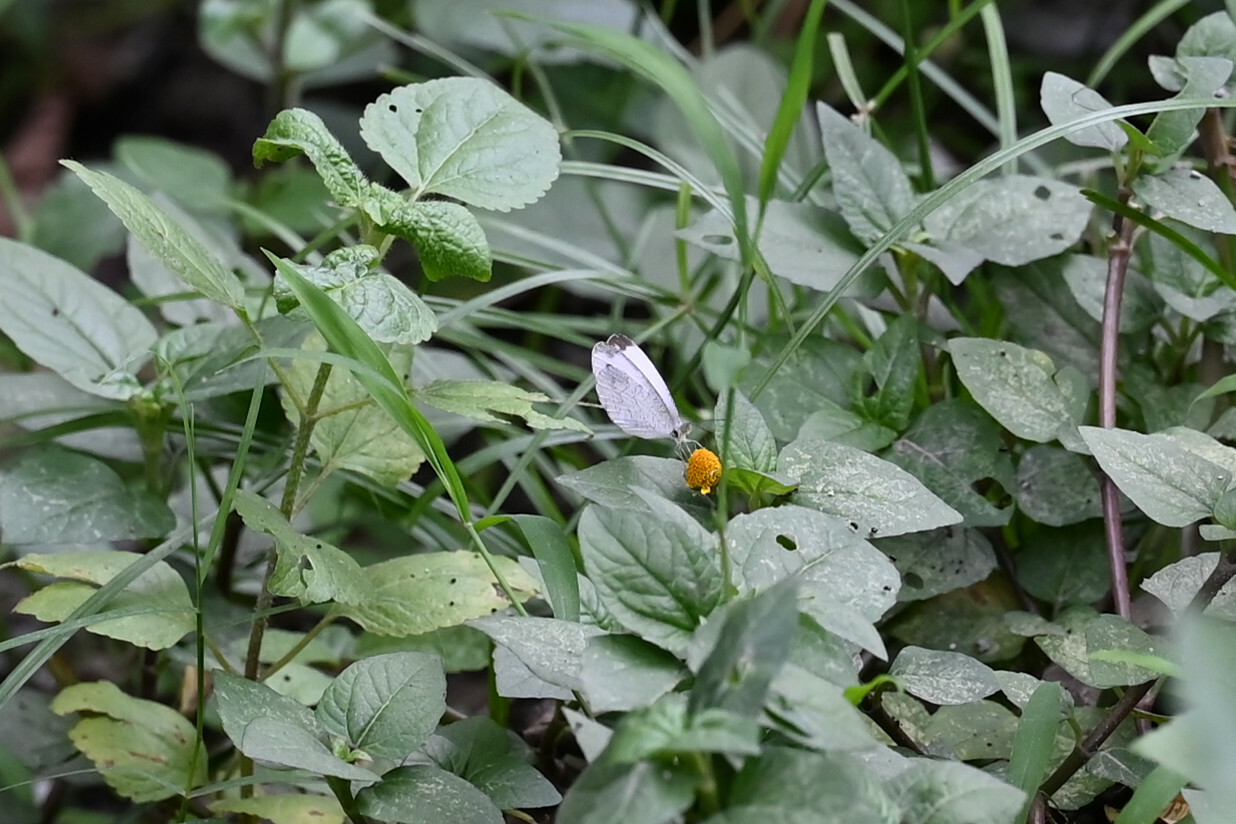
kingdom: Animalia
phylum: Arthropoda
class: Insecta
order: Lepidoptera
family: Pieridae
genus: Leptosia
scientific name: Leptosia nina
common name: Psyche
